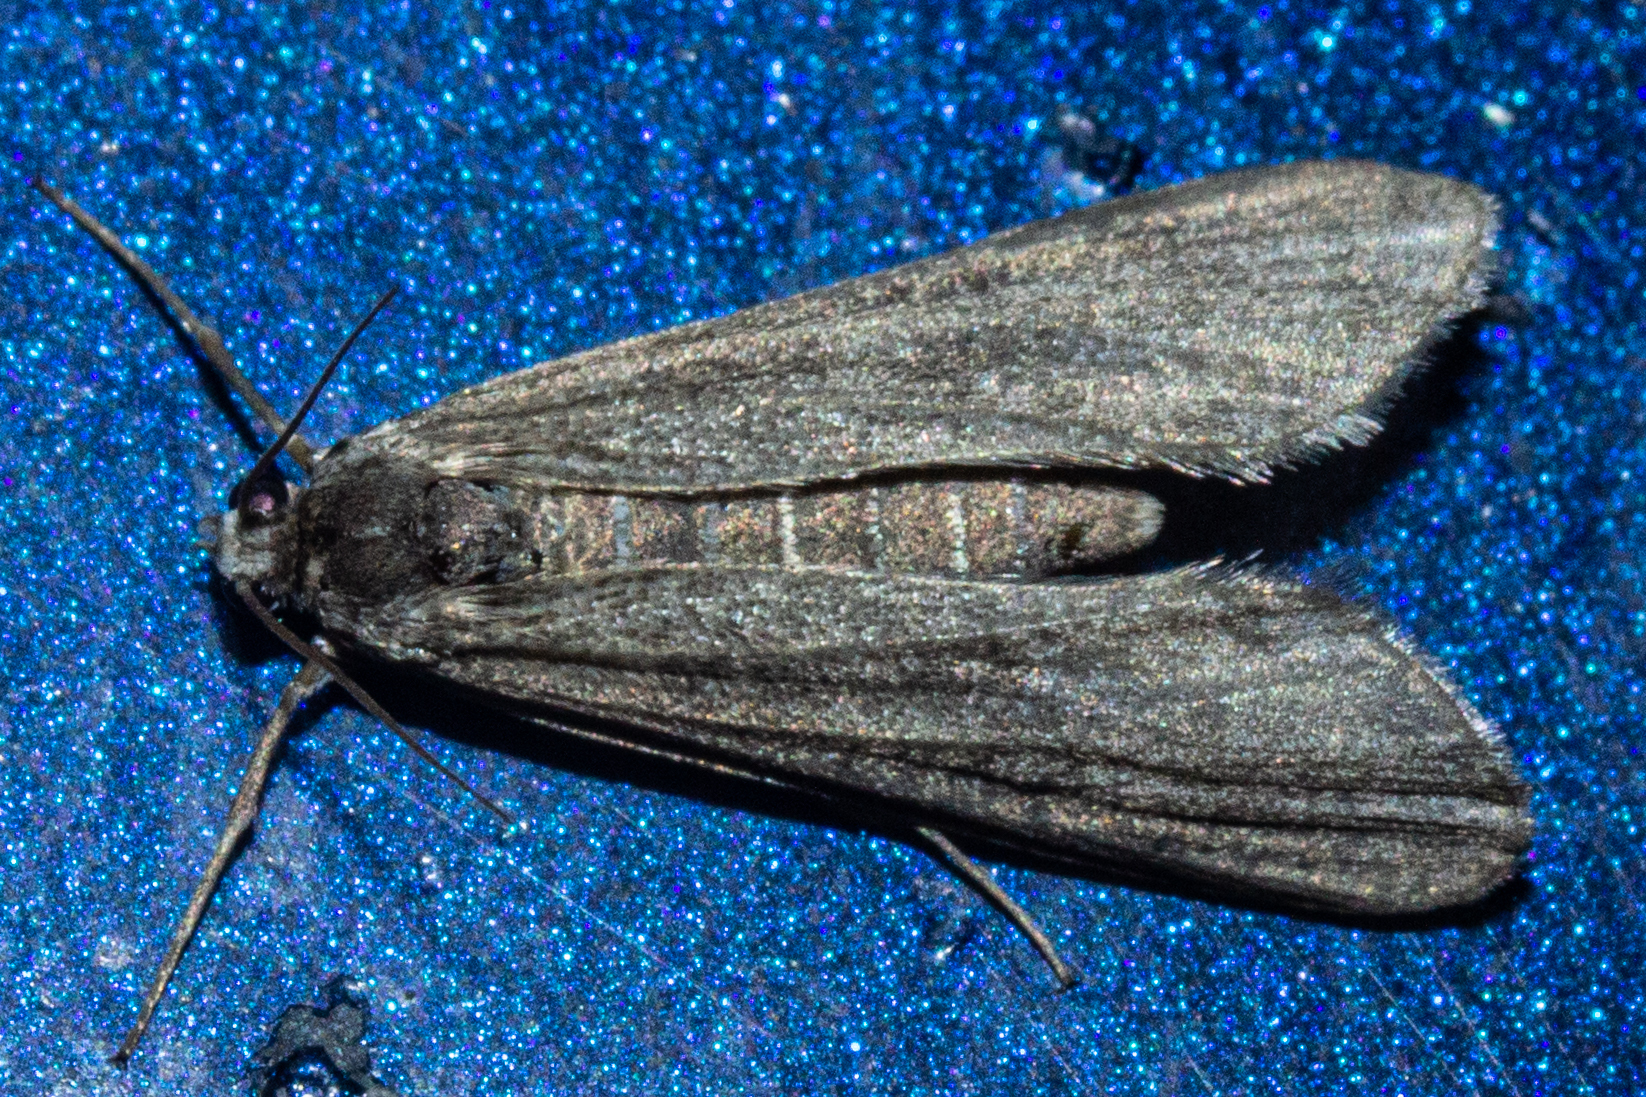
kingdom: Animalia
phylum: Arthropoda
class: Insecta
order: Lepidoptera
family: Crambidae
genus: Hygraula
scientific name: Hygraula nitens
